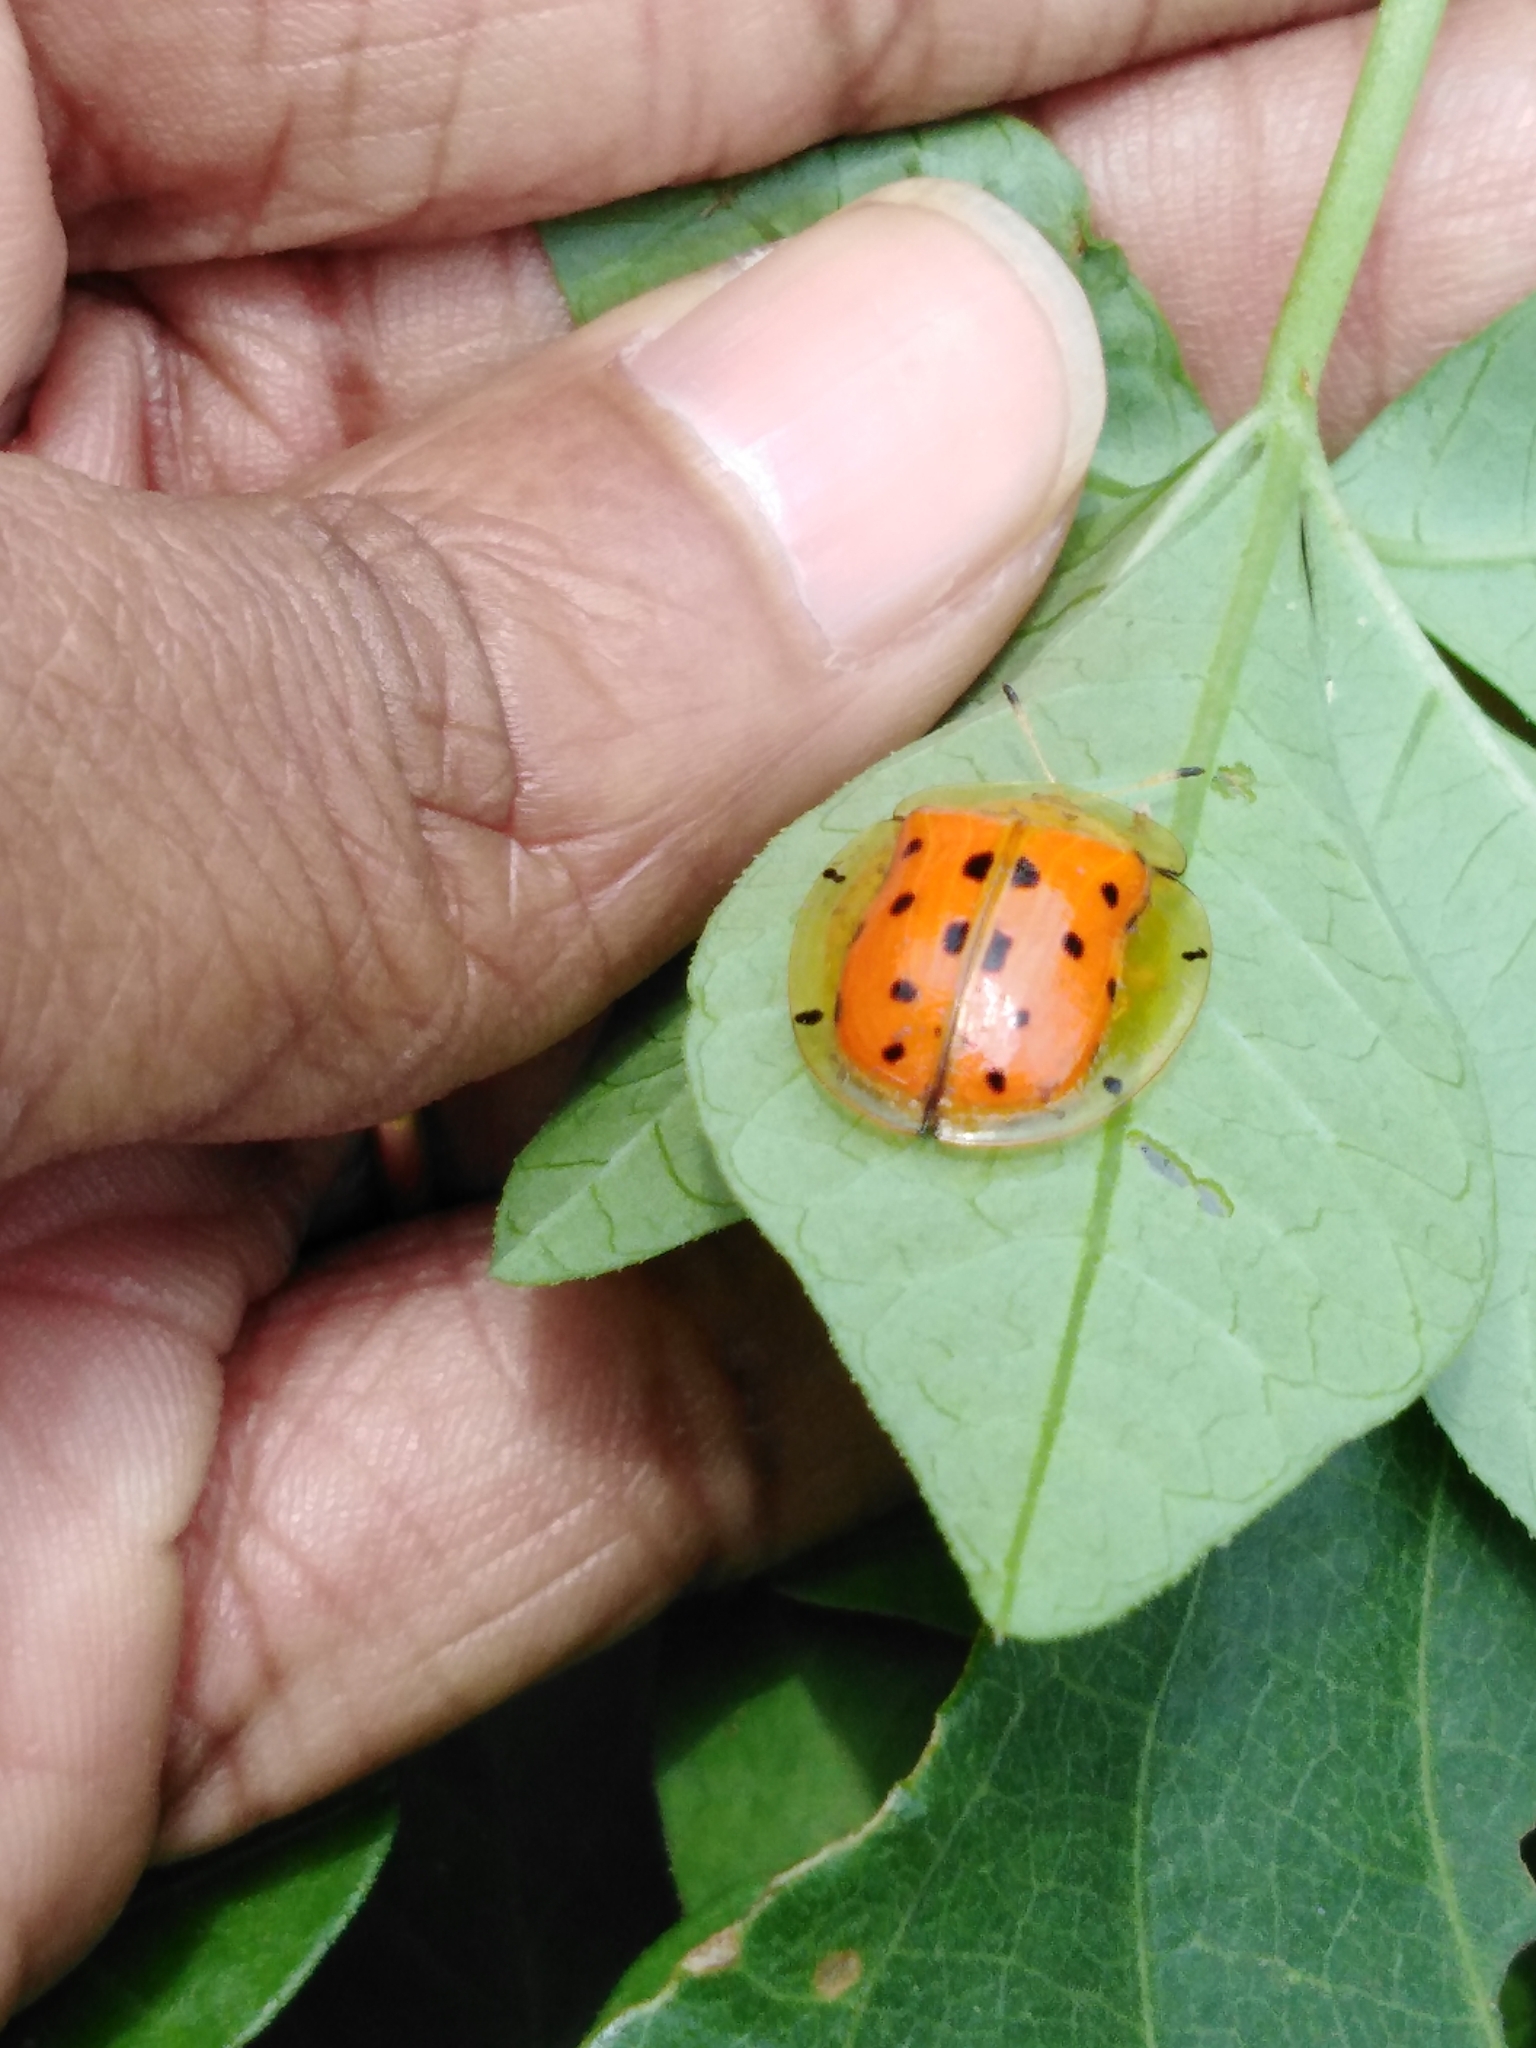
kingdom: Animalia
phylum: Arthropoda
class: Insecta
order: Coleoptera
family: Chrysomelidae
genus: Aspidimorpha
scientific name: Aspidimorpha miliaris
